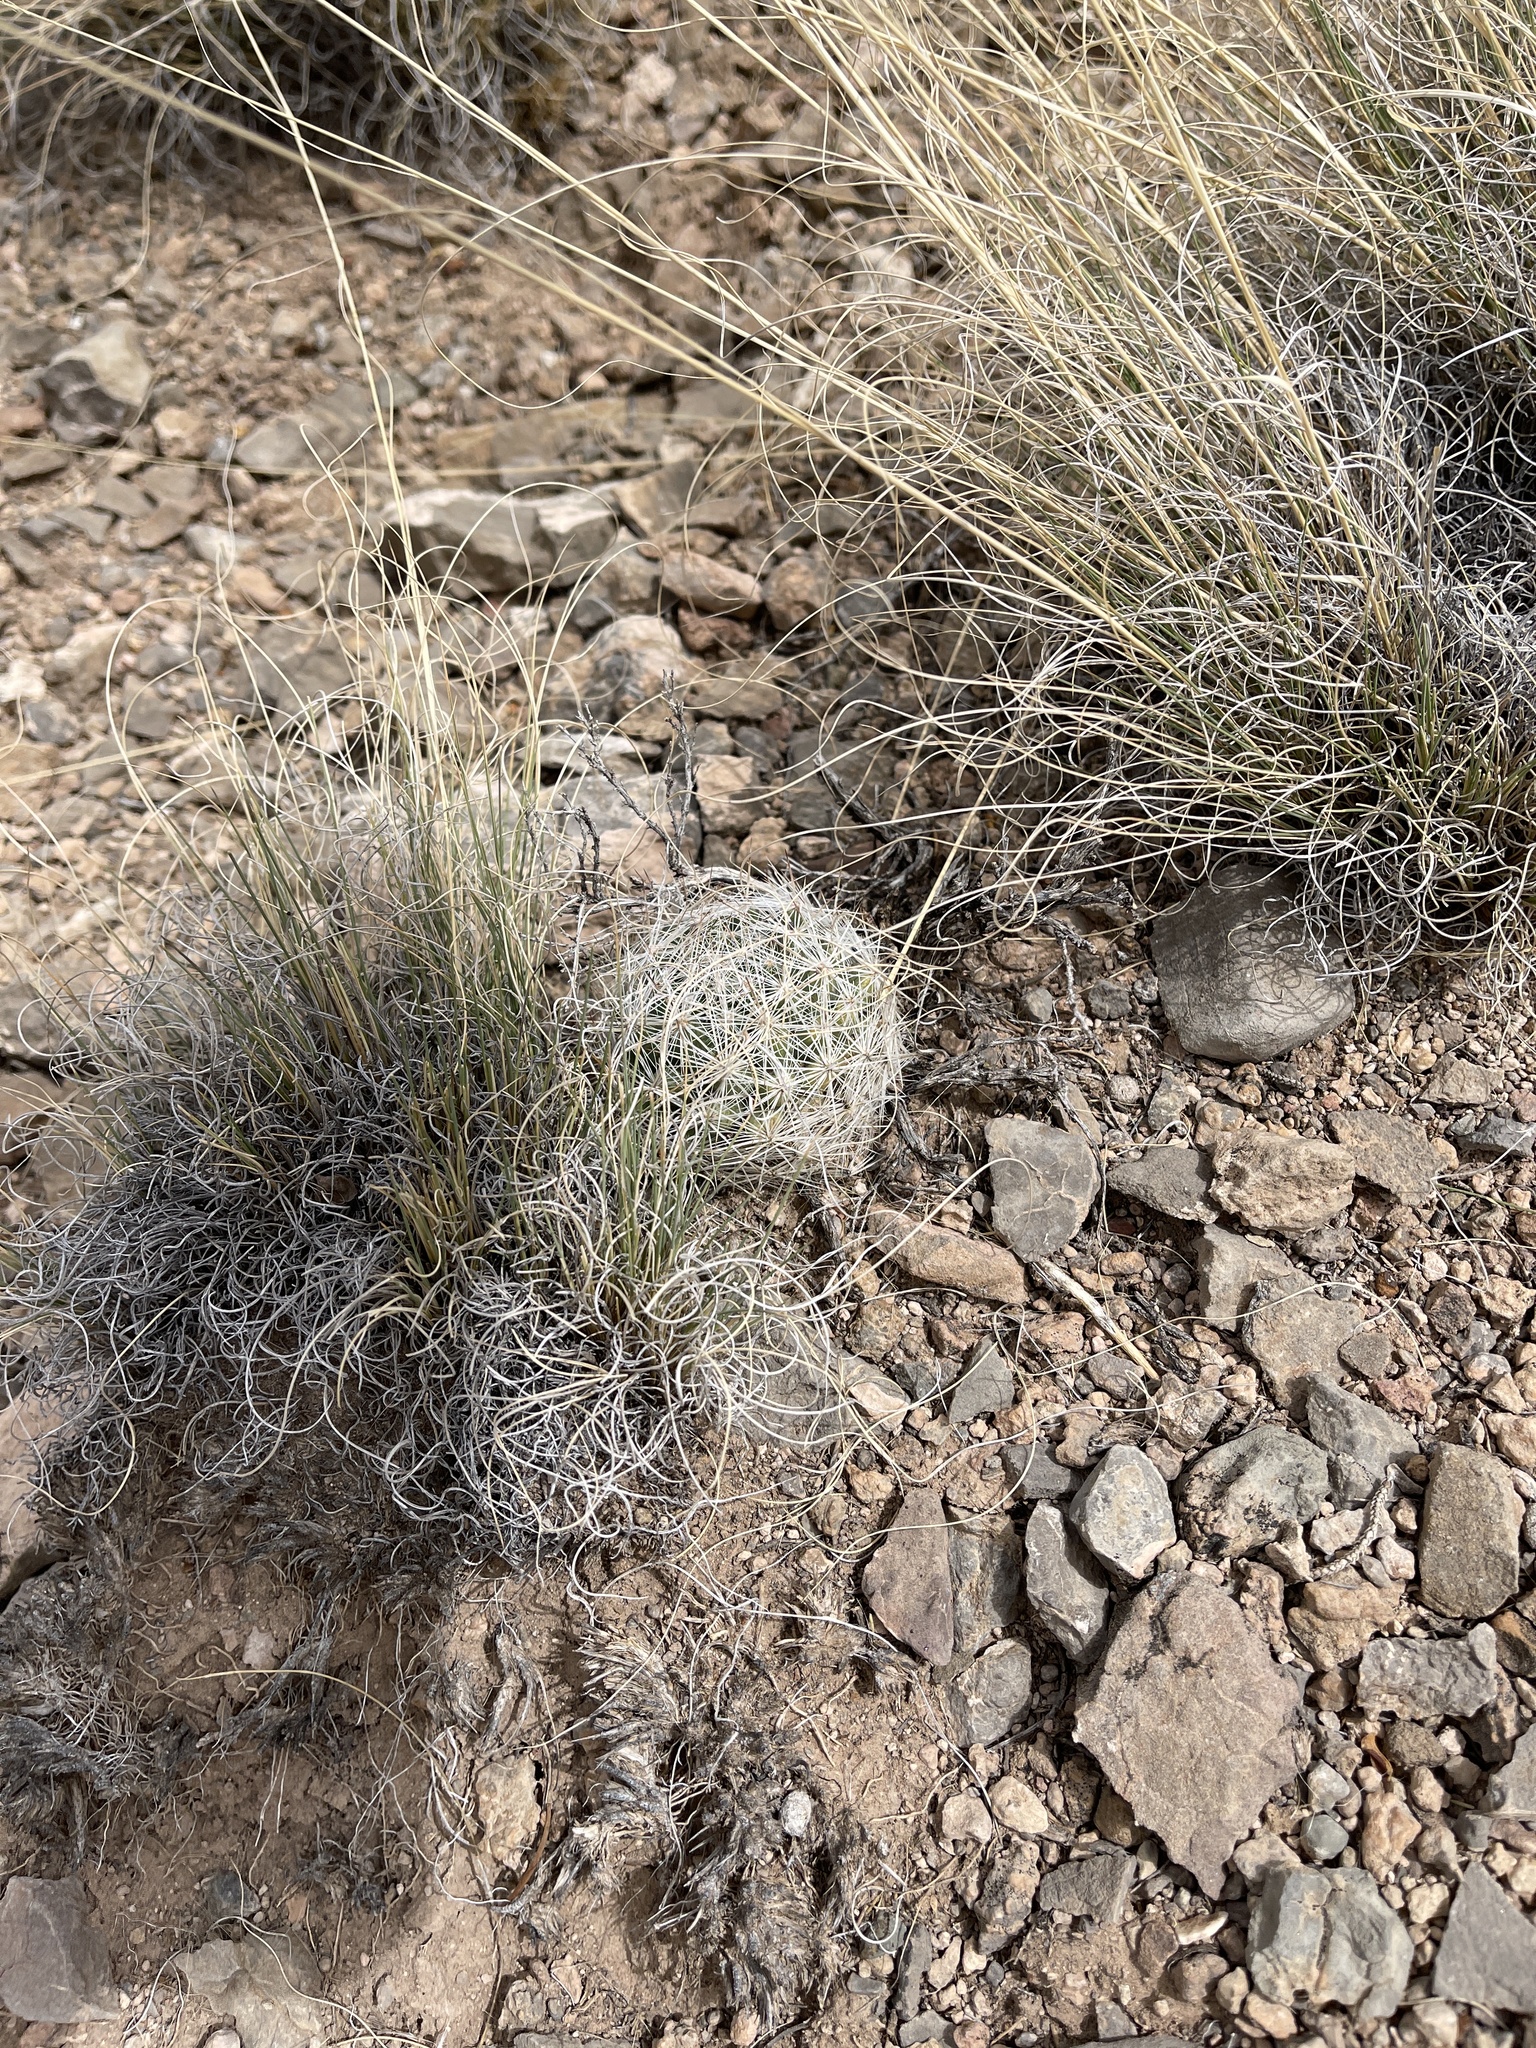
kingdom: Plantae
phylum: Tracheophyta
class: Magnoliopsida
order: Caryophyllales
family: Cactaceae
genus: Pelecyphora
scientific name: Pelecyphora vivipara
